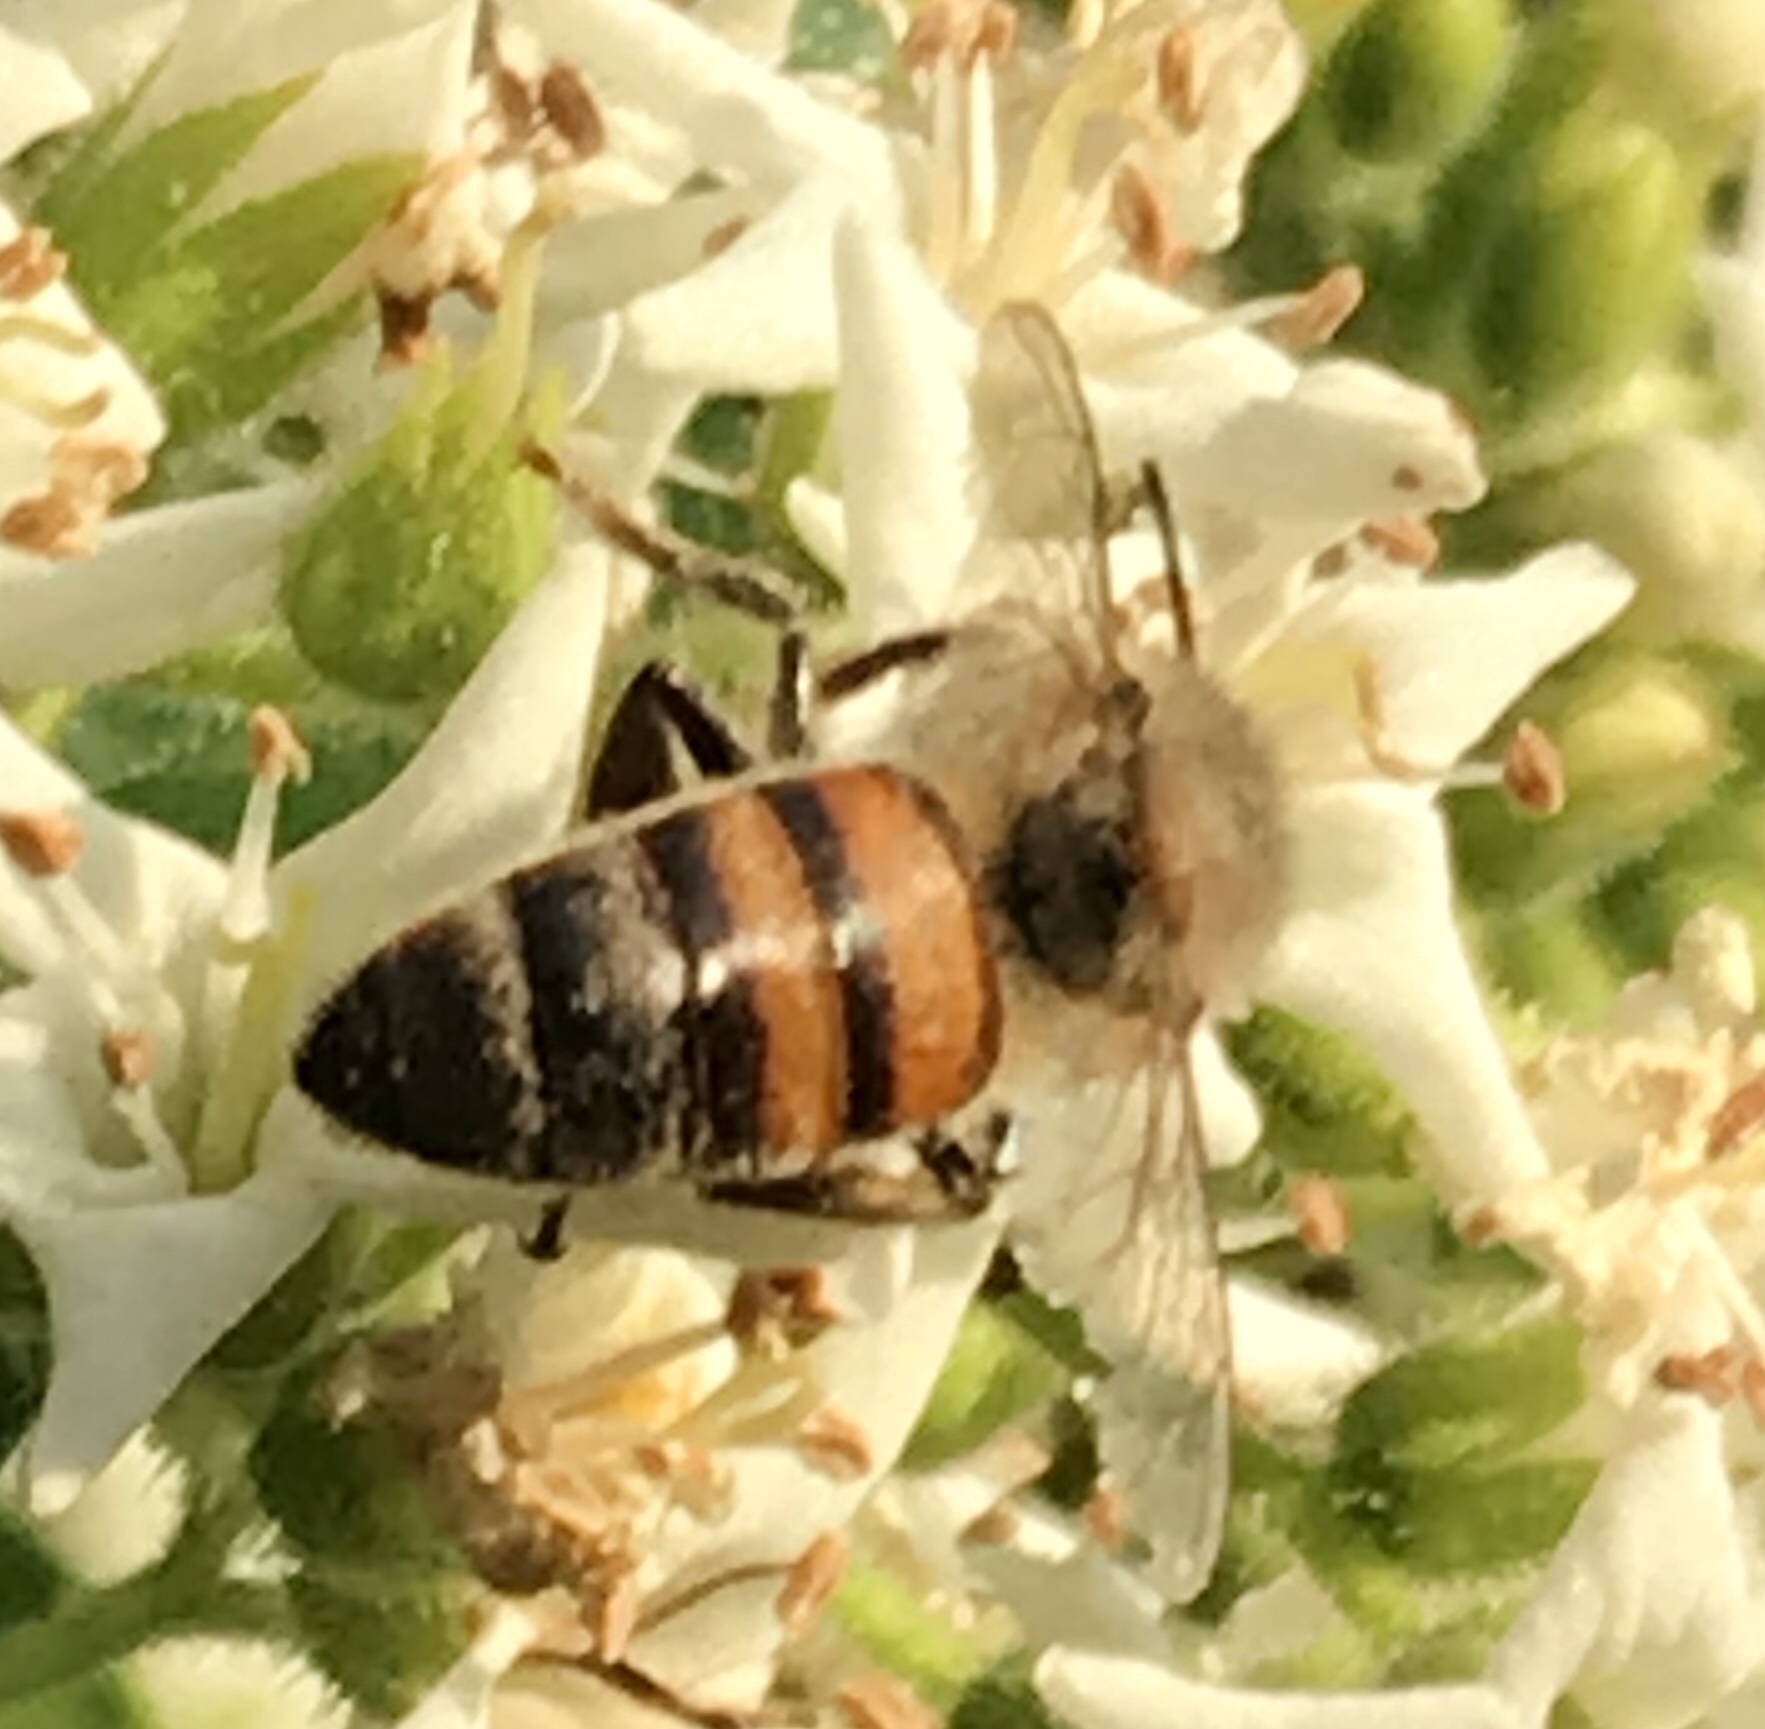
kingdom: Animalia
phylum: Arthropoda
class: Insecta
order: Hymenoptera
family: Apidae
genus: Apis
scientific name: Apis mellifera
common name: Honey bee
